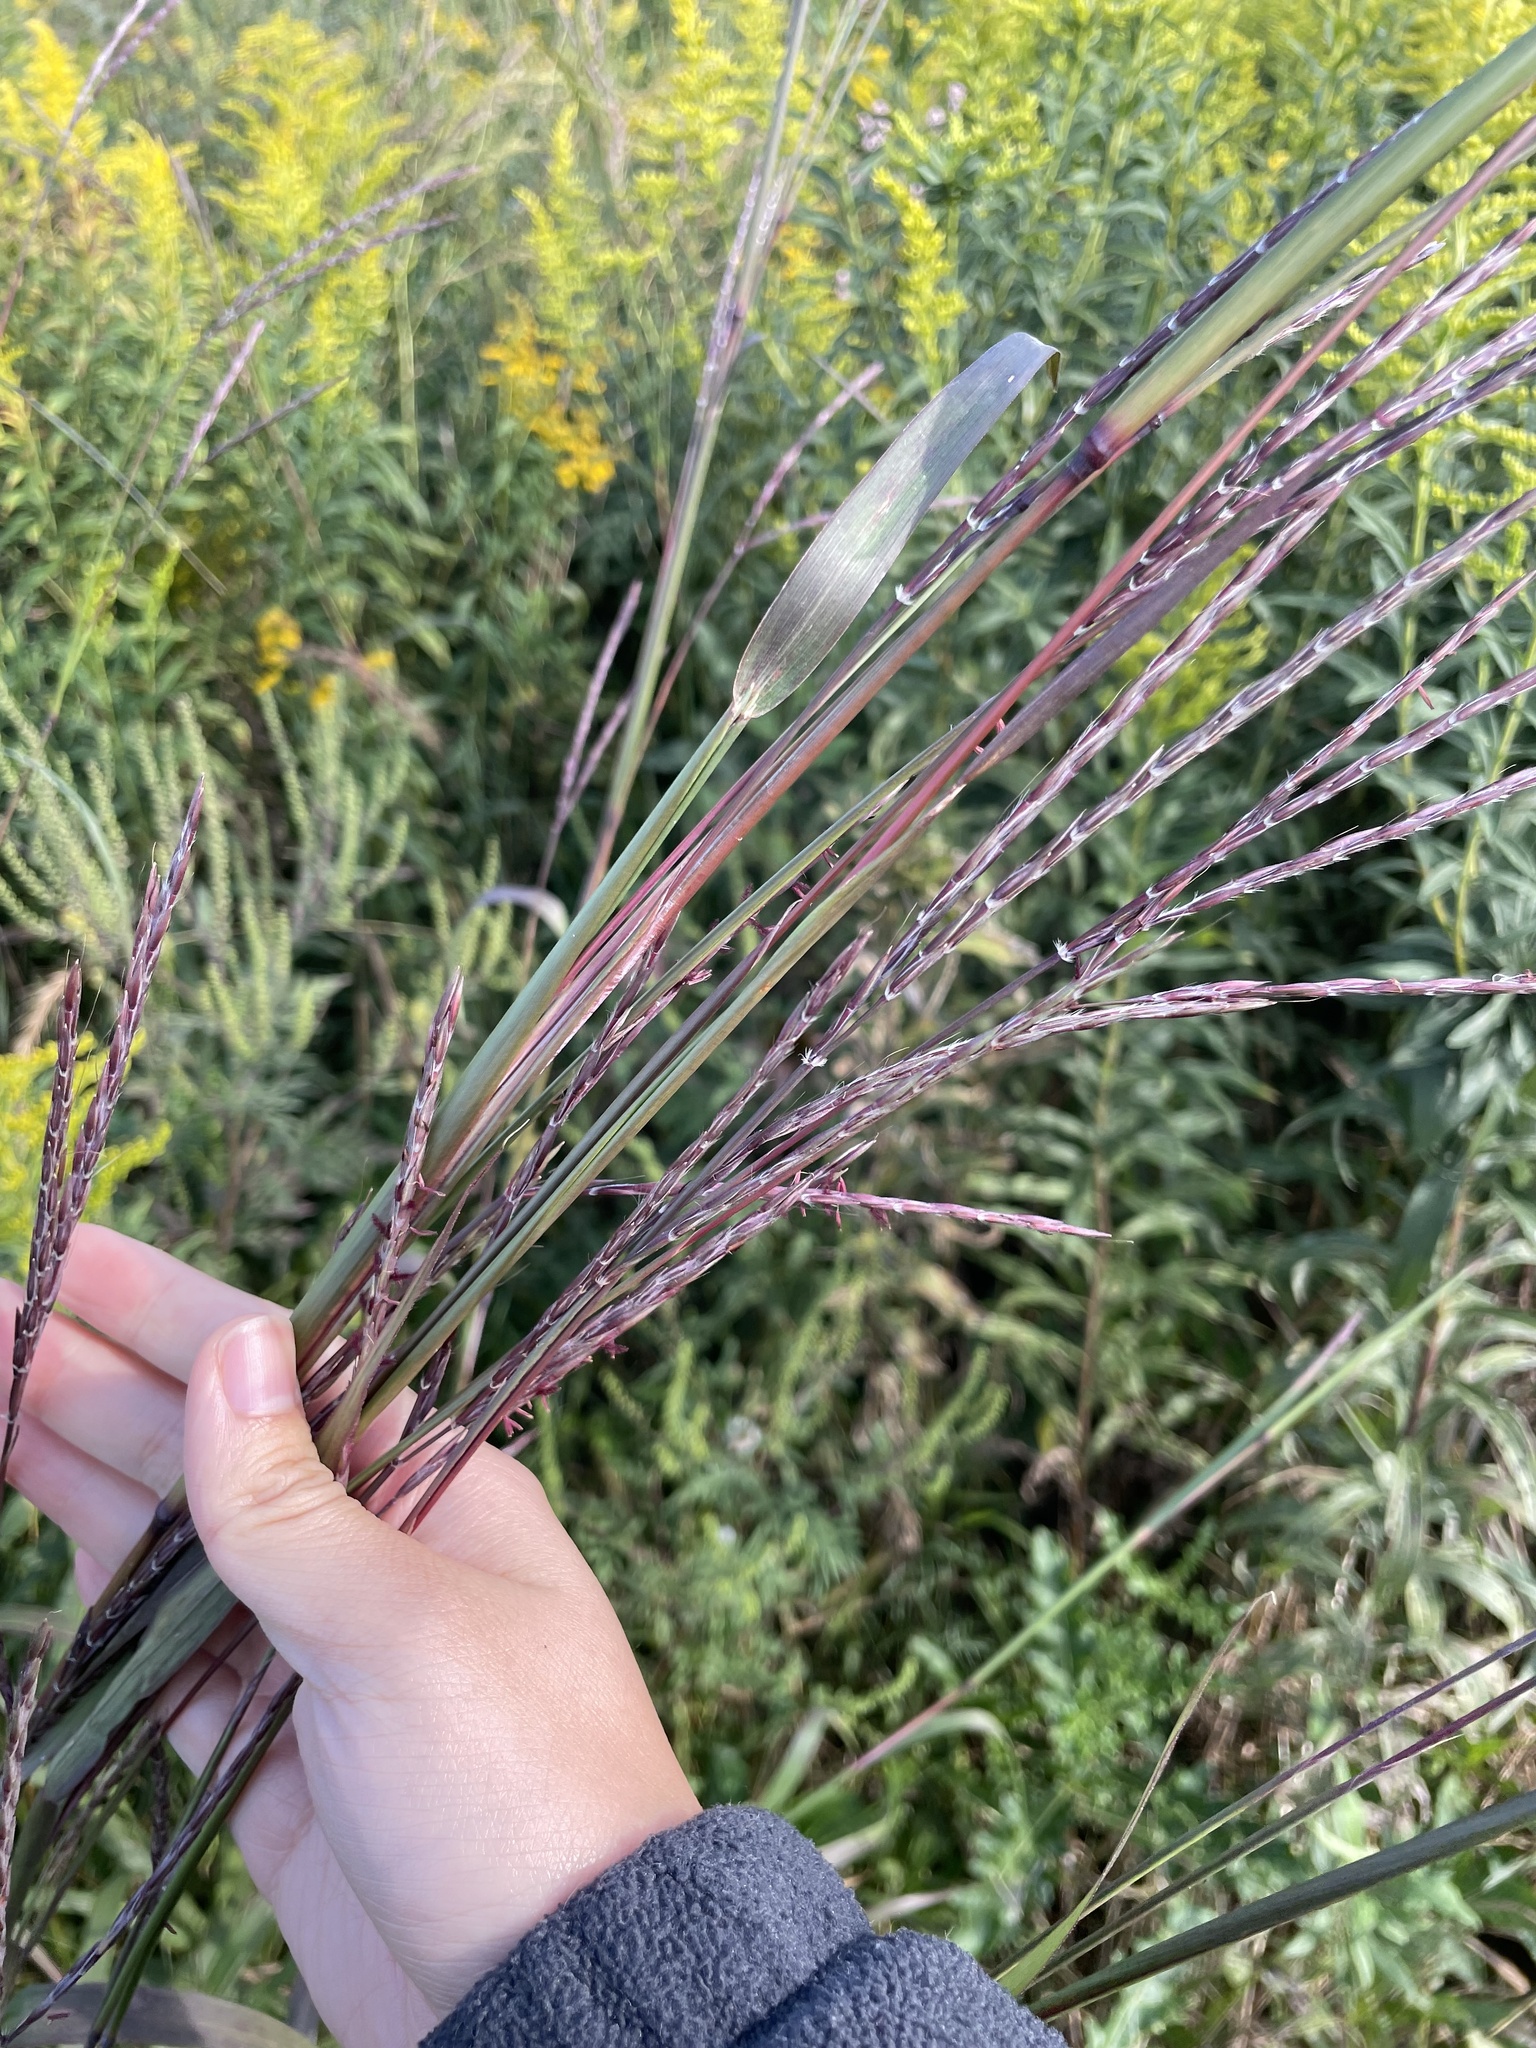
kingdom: Plantae
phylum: Tracheophyta
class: Liliopsida
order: Poales
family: Poaceae
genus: Andropogon
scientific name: Andropogon gerardi
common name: Big bluestem
